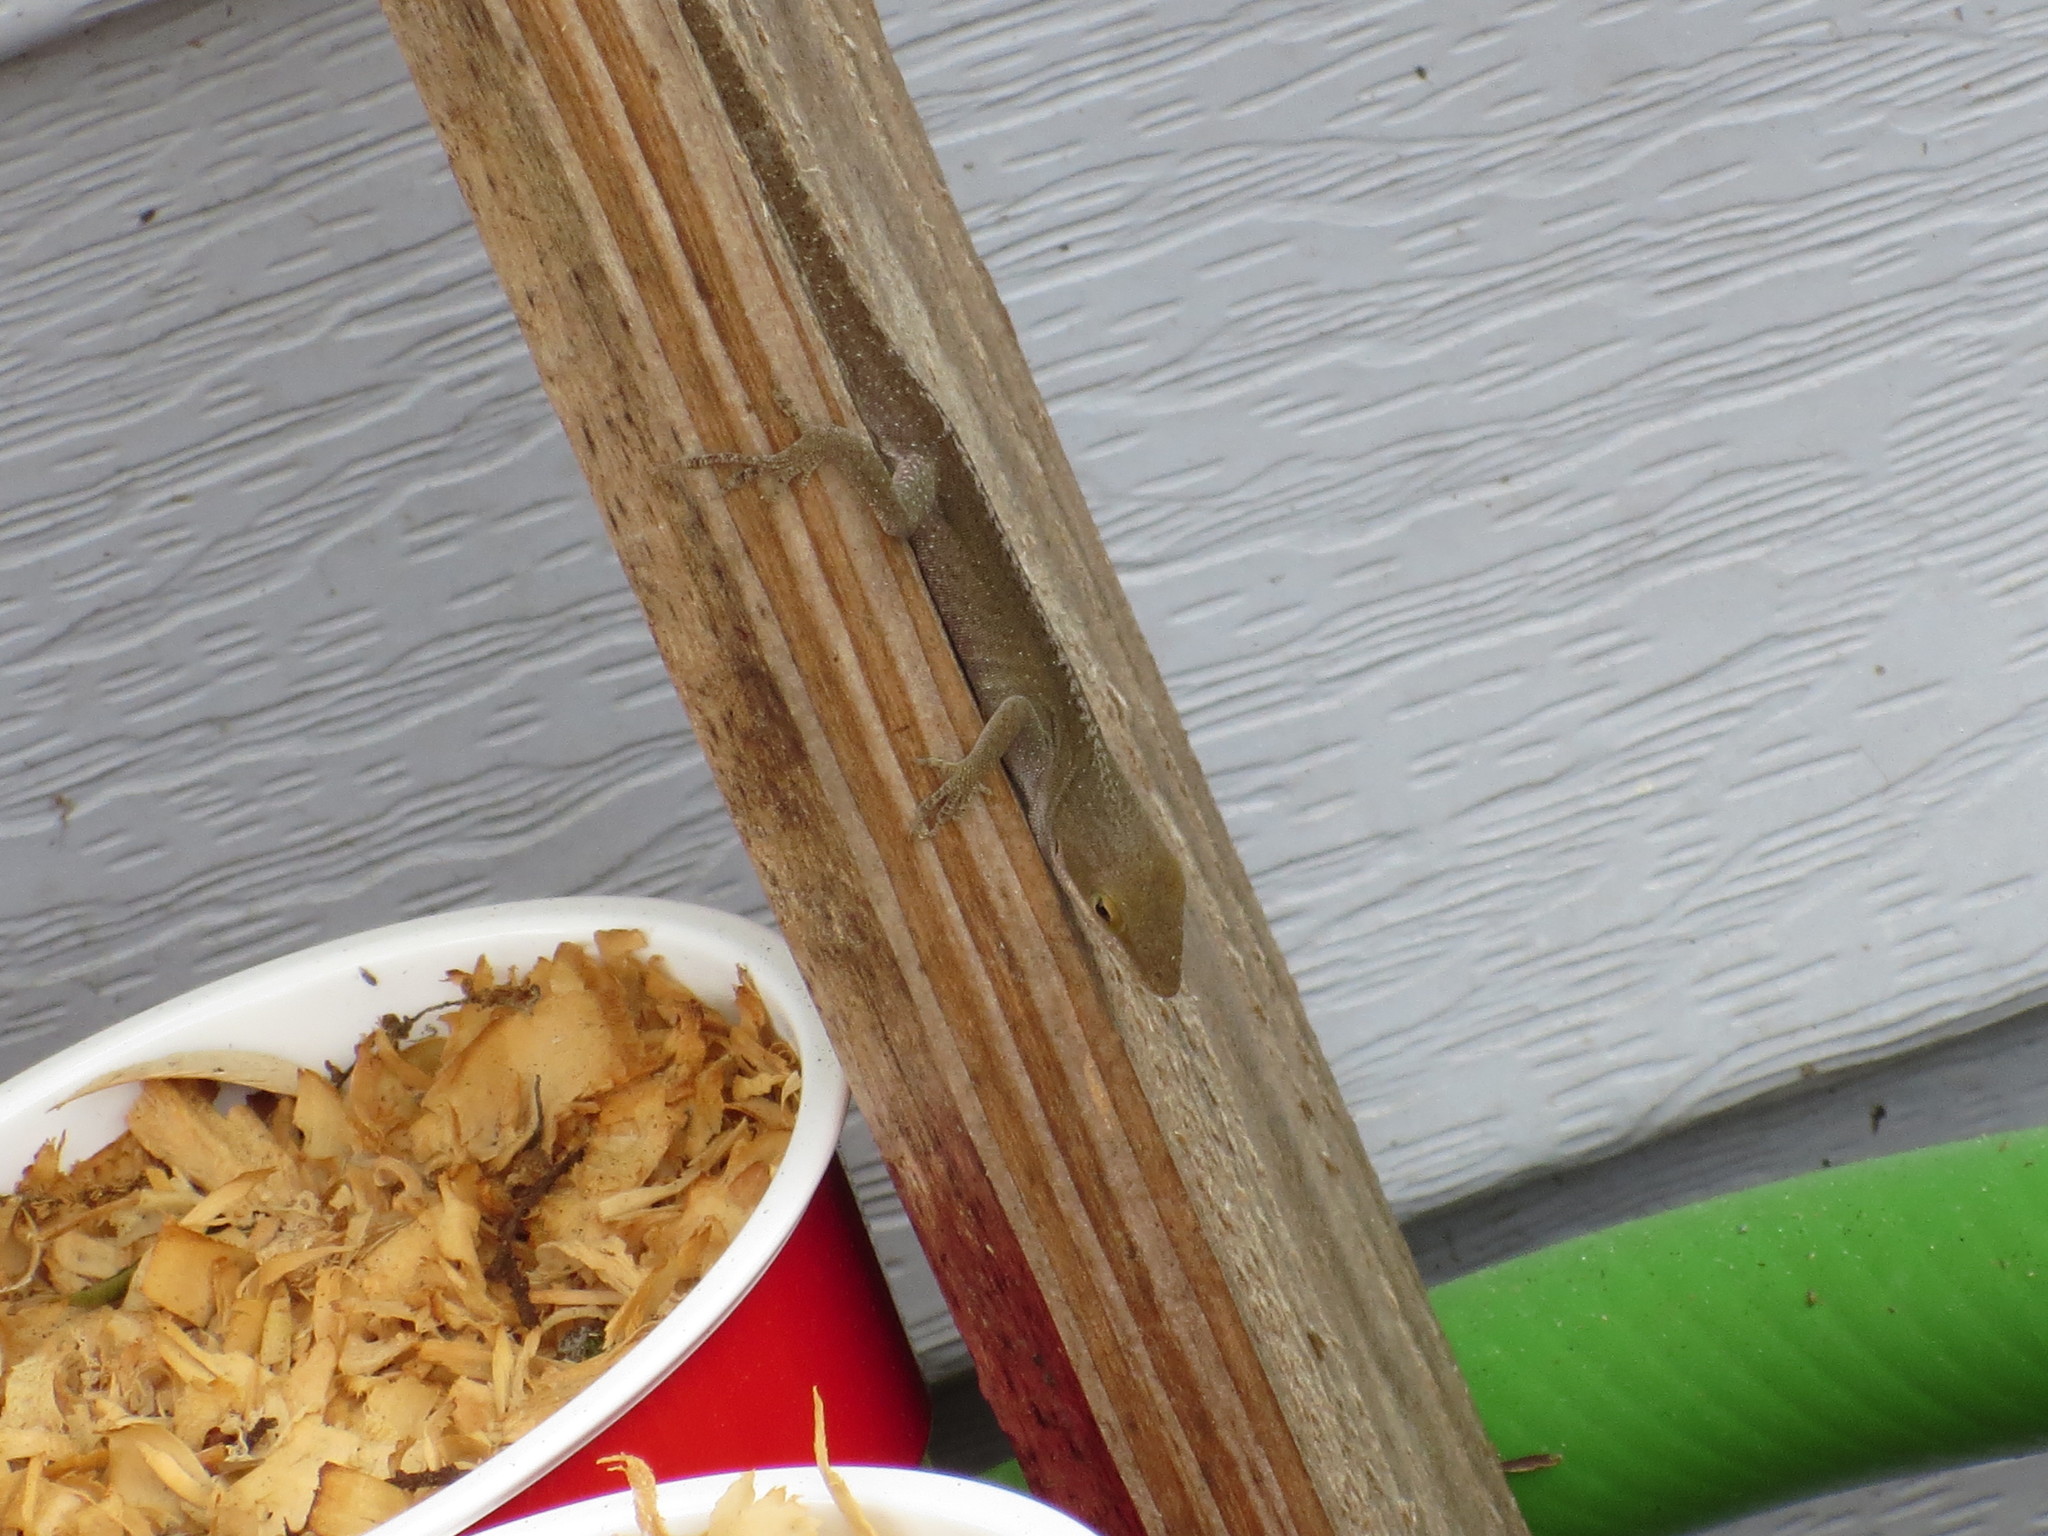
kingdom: Animalia
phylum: Chordata
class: Squamata
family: Dactyloidae
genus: Anolis
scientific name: Anolis carolinensis
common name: Green anole
